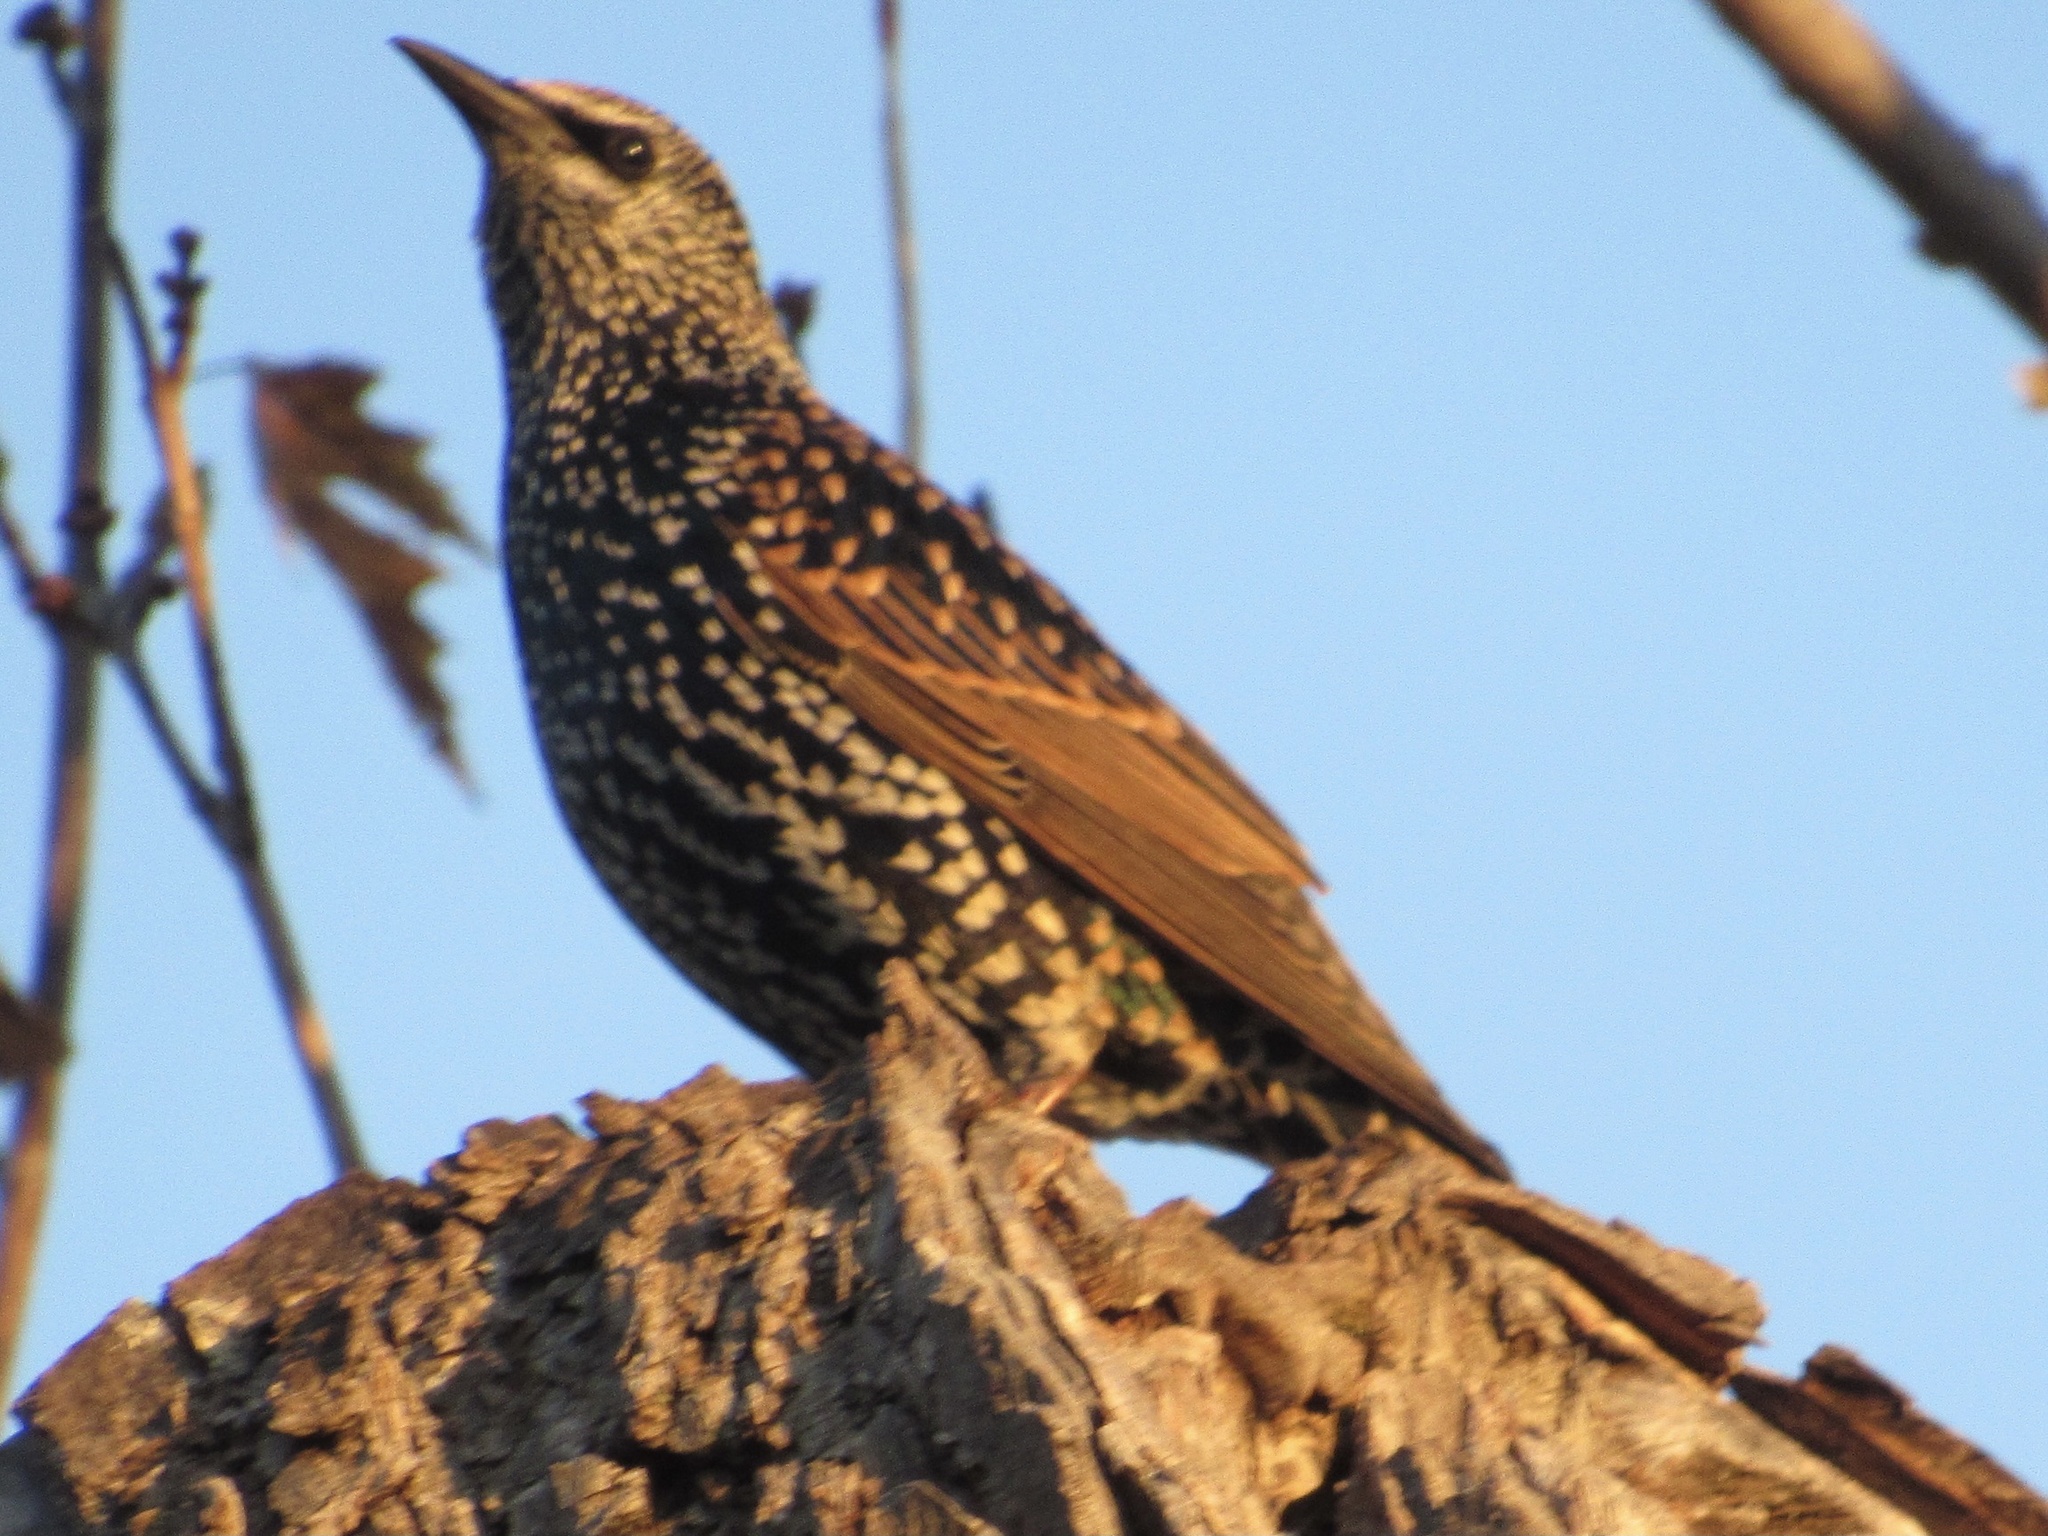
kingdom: Animalia
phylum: Chordata
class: Aves
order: Passeriformes
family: Sturnidae
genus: Sturnus
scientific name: Sturnus vulgaris
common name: Common starling
